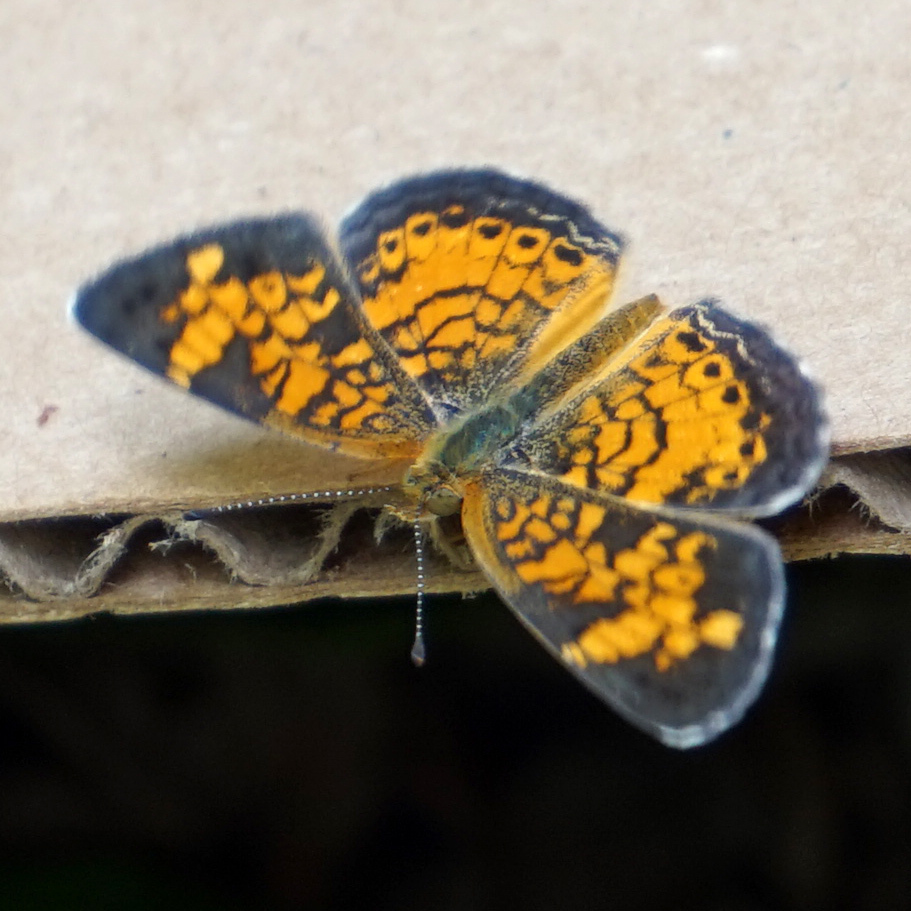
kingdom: Animalia
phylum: Arthropoda
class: Insecta
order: Lepidoptera
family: Nymphalidae
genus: Phyciodes
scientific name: Phyciodes tharos
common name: Pearl crescent
